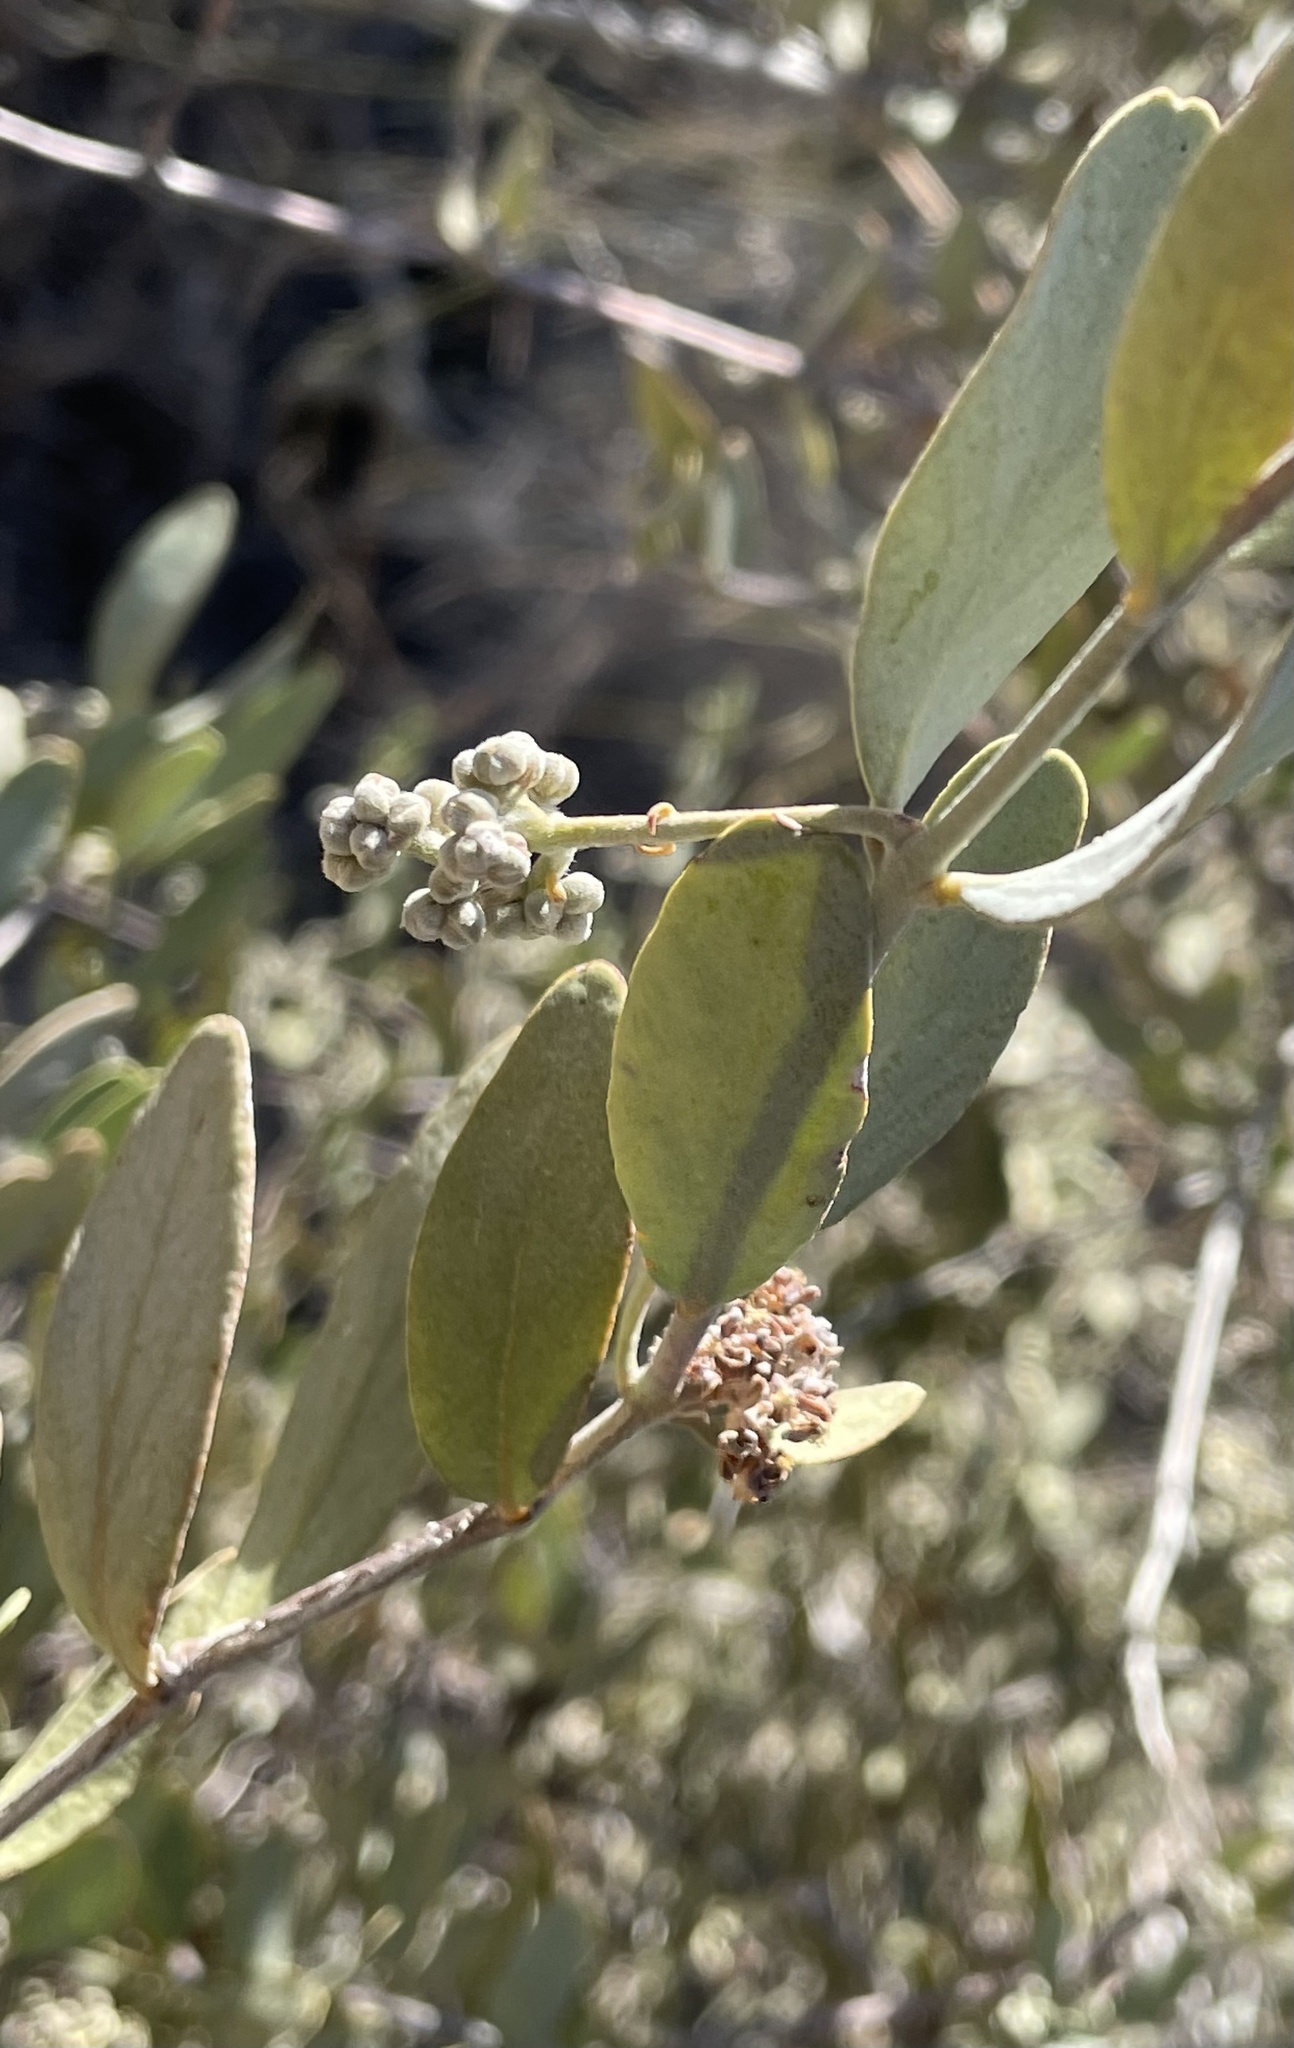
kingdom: Plantae
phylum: Tracheophyta
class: Magnoliopsida
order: Caryophyllales
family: Simmondsiaceae
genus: Simmondsia
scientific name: Simmondsia chinensis
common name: Jojoba
